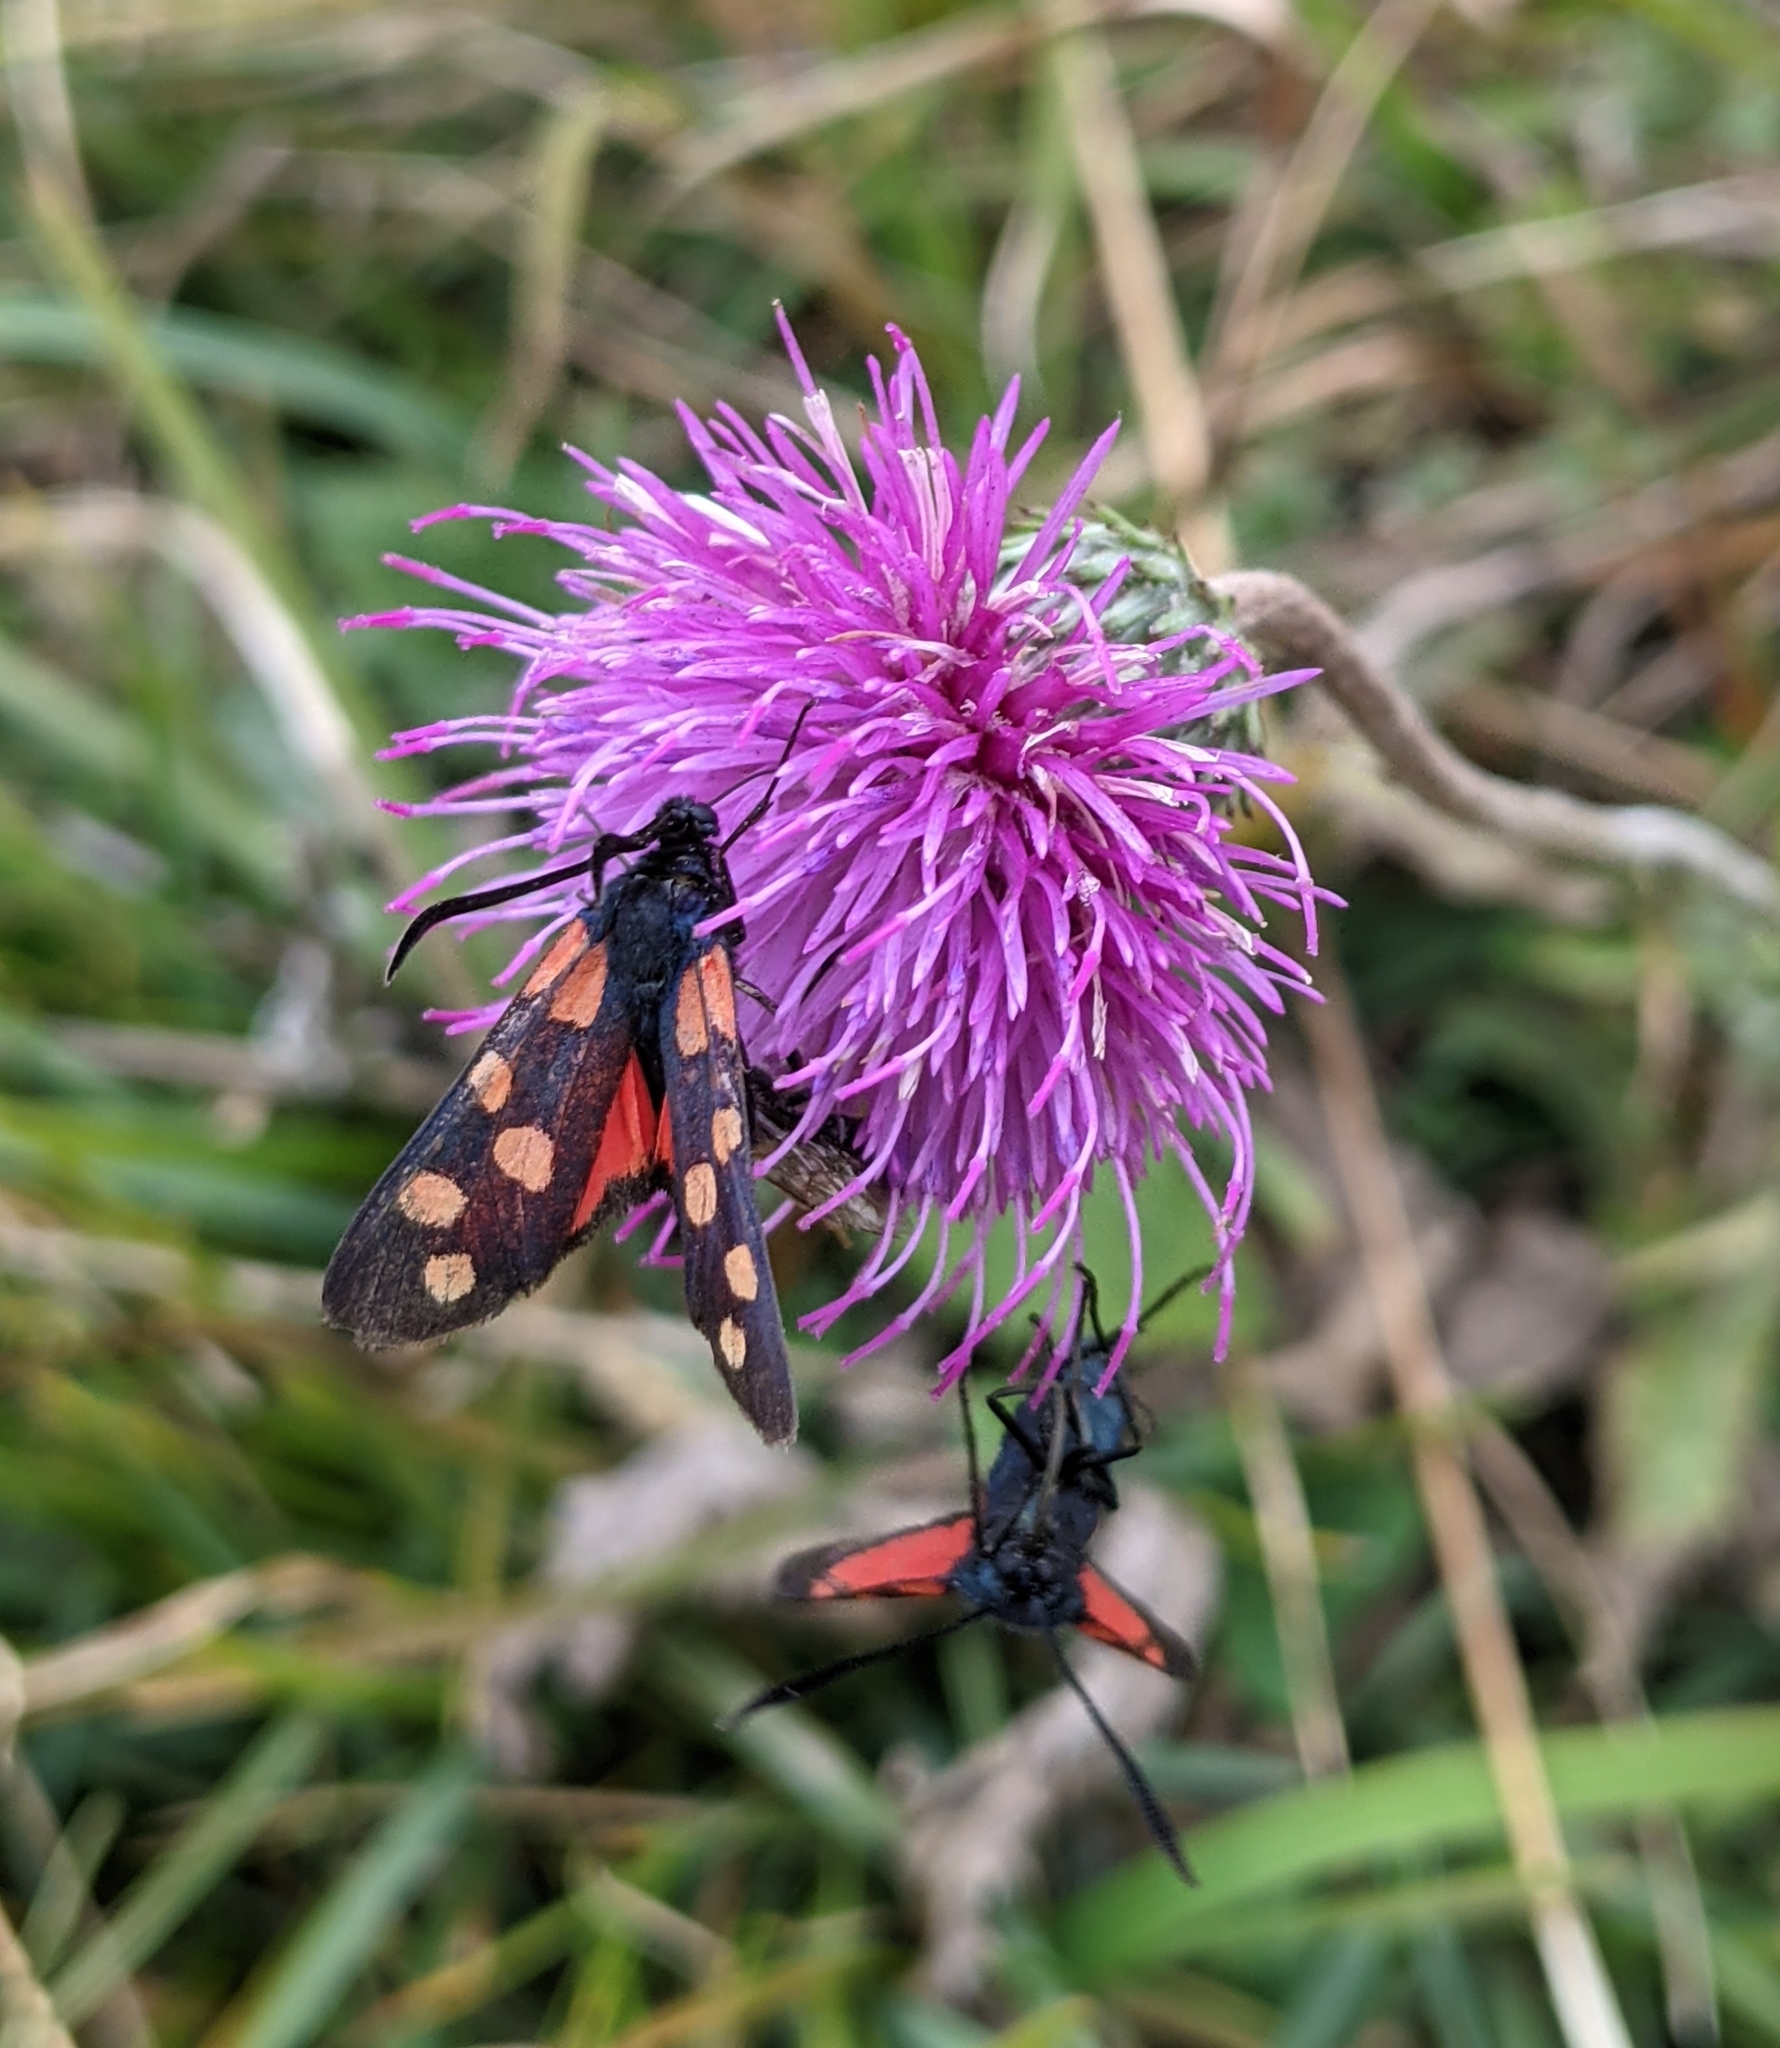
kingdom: Animalia
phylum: Arthropoda
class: Insecta
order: Lepidoptera
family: Zygaenidae
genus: Zygaena
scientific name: Zygaena transalpina
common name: Southern six spot burnet
